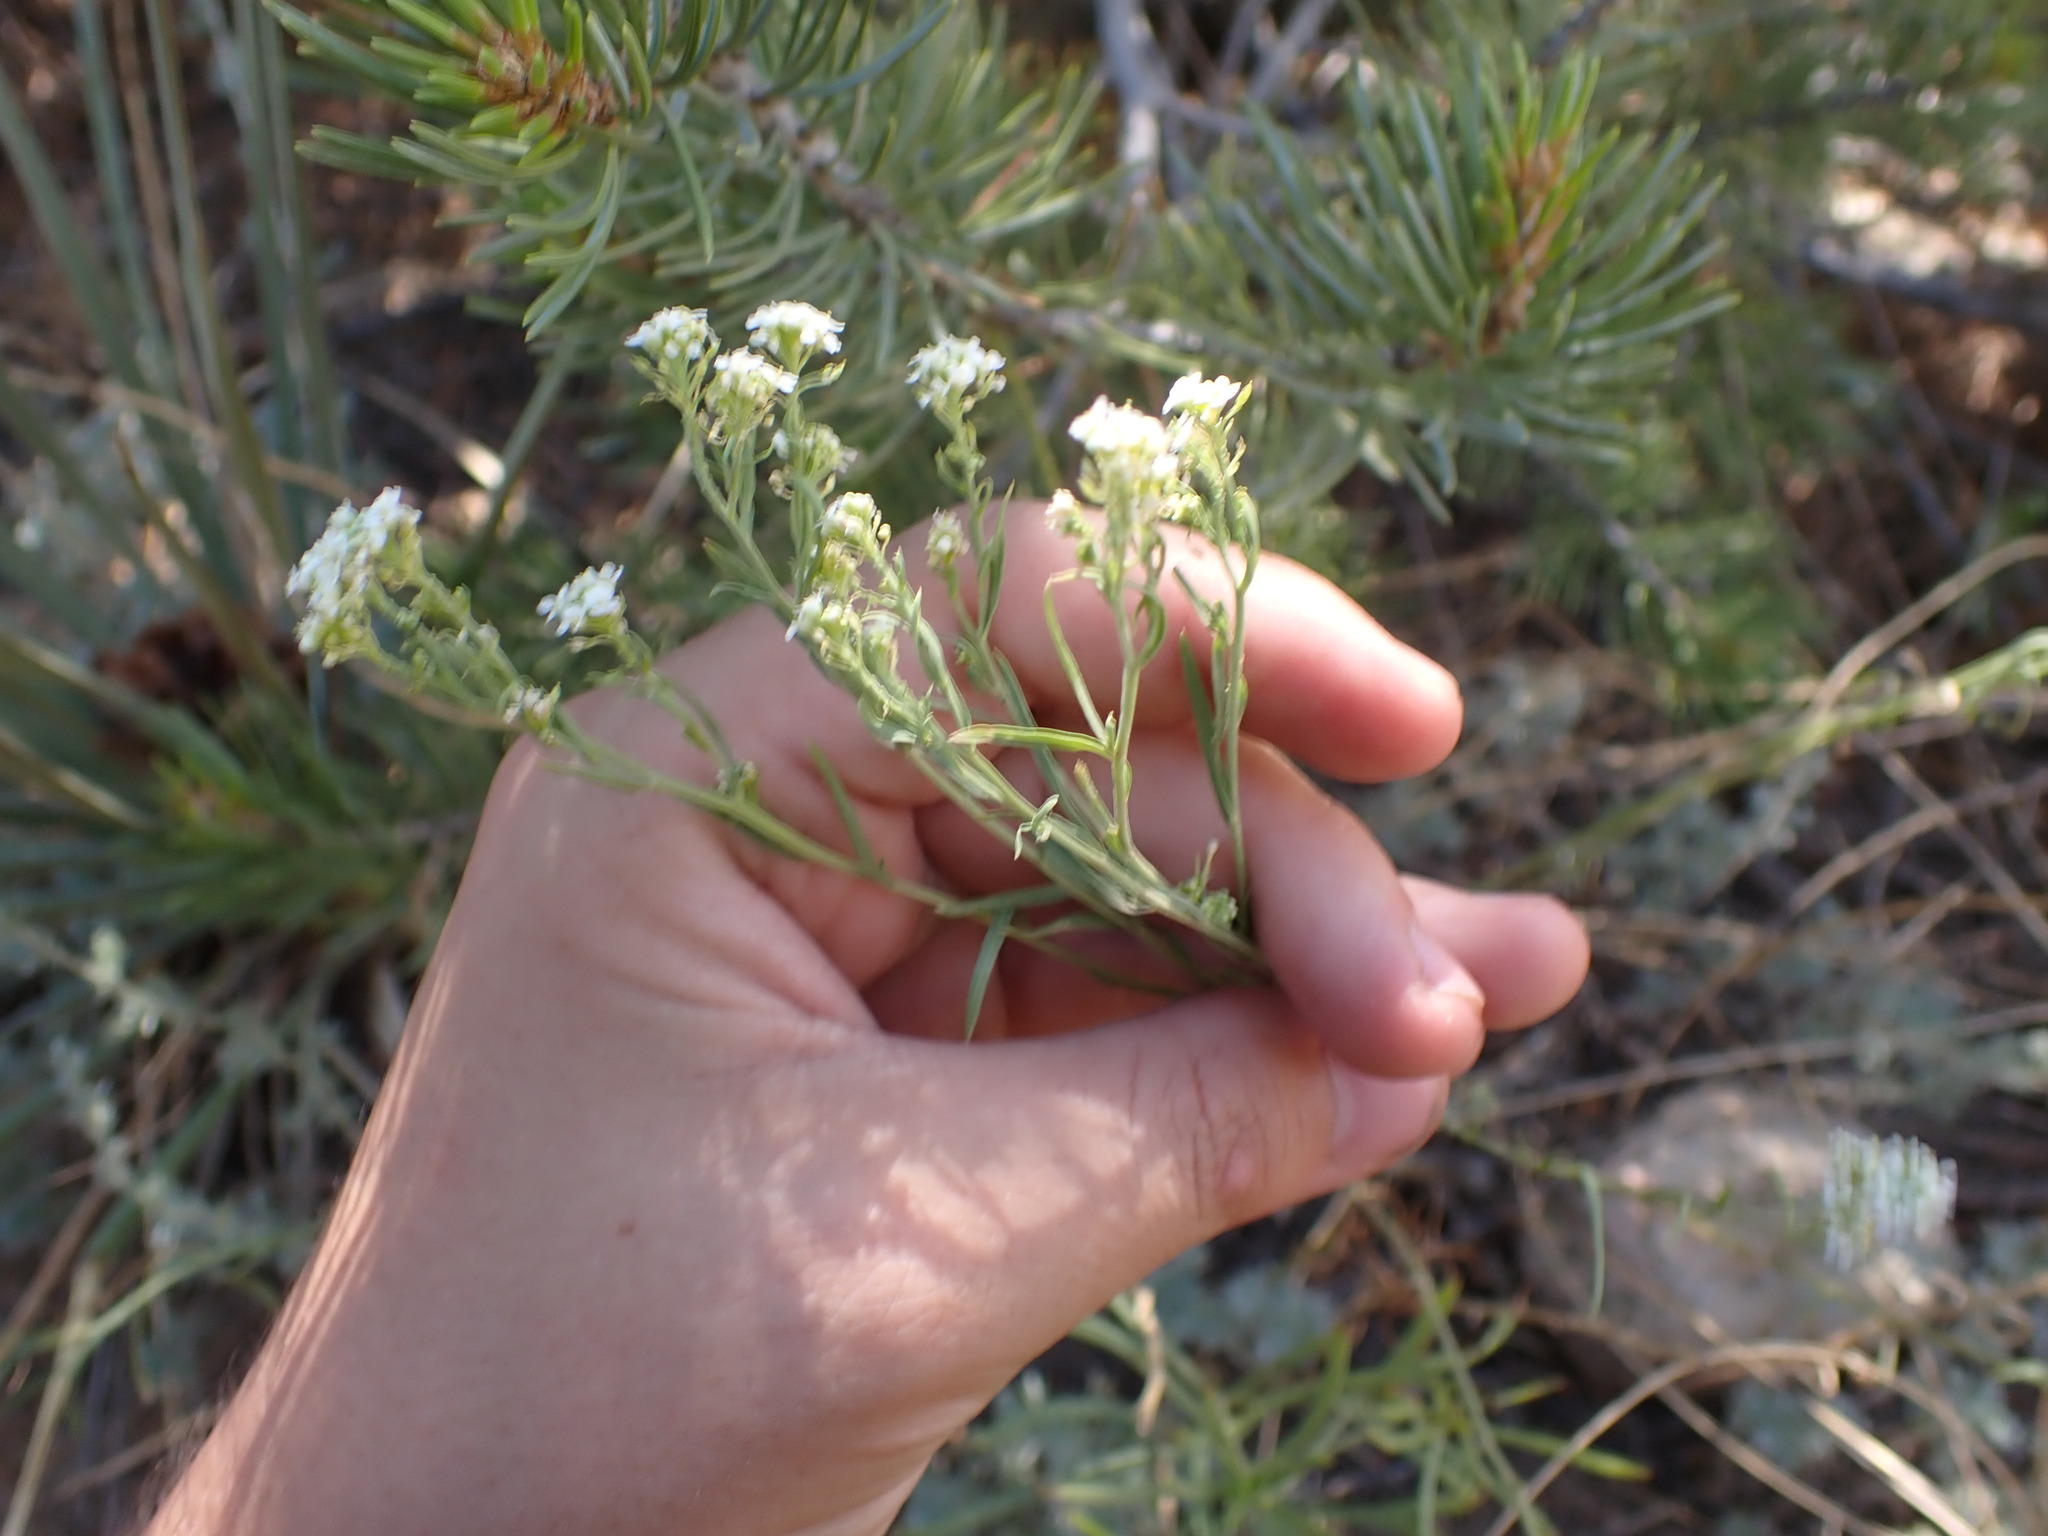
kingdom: Plantae
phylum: Tracheophyta
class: Magnoliopsida
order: Brassicales
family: Brassicaceae
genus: Berteroa
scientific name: Berteroa incana
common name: Hoary alison
